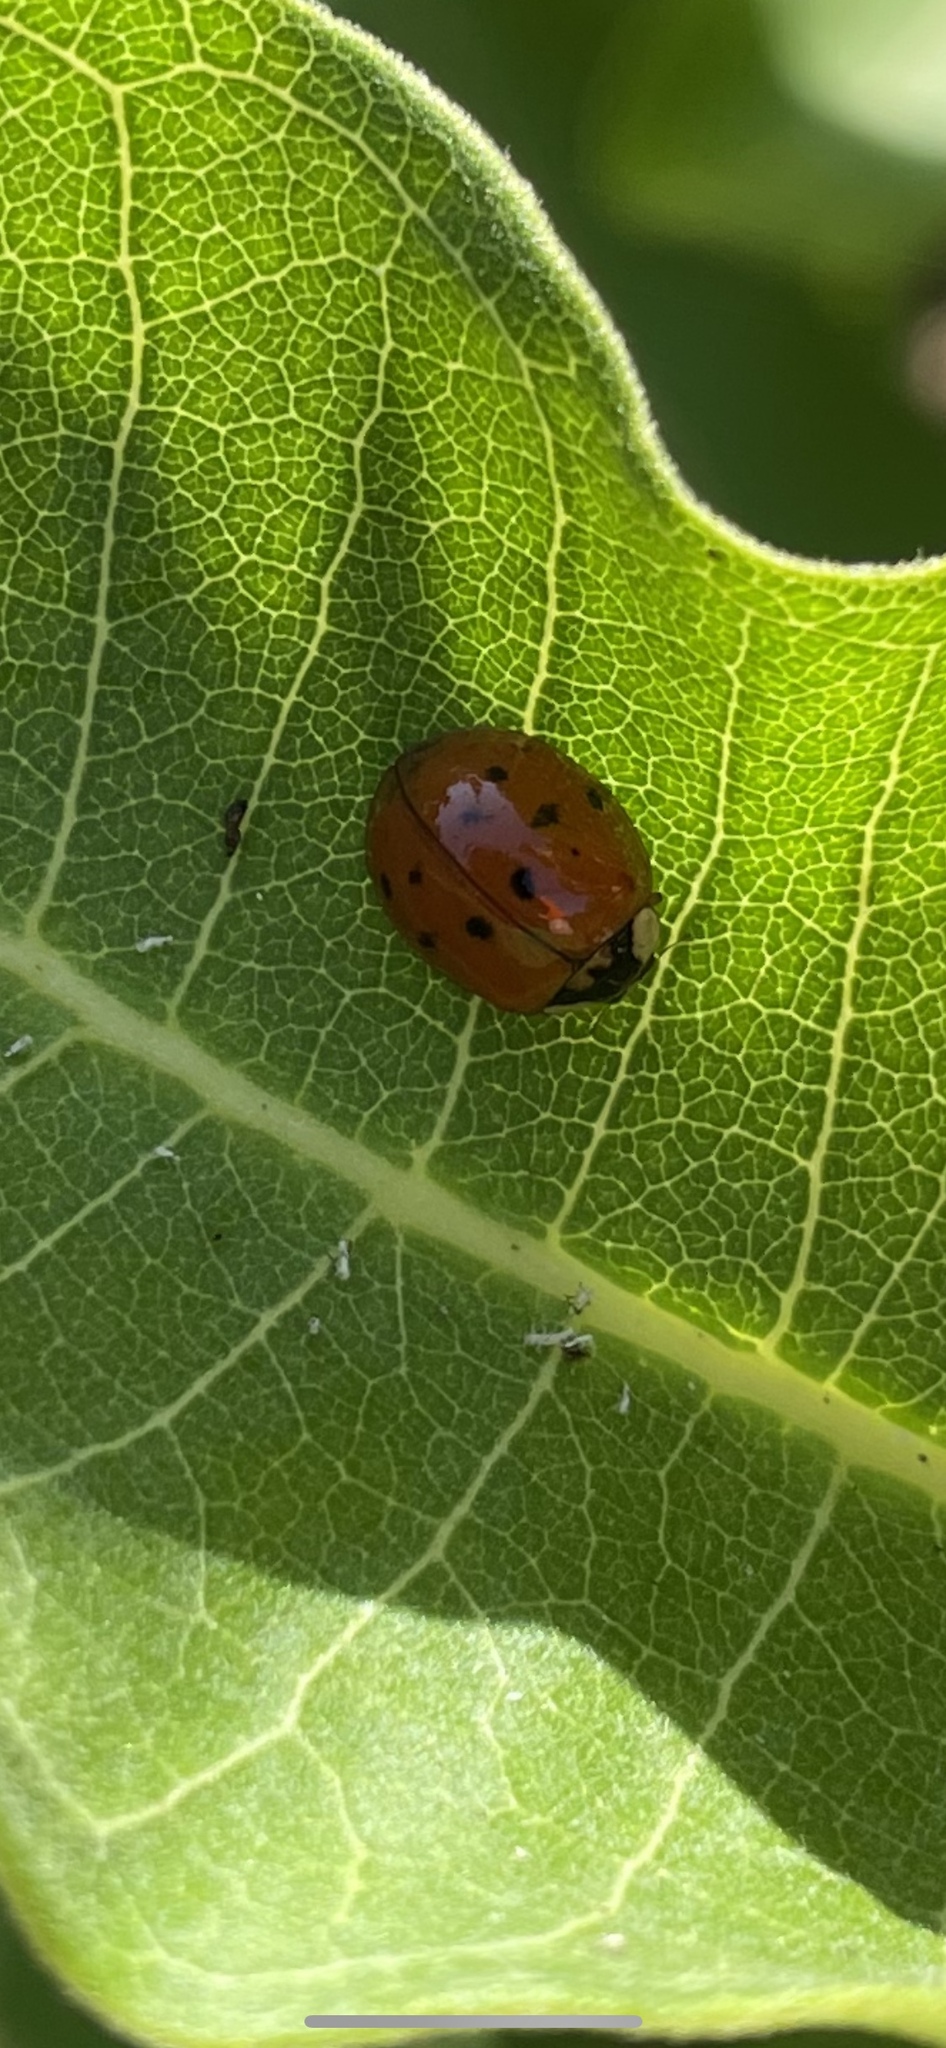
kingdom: Animalia
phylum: Arthropoda
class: Insecta
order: Coleoptera
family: Coccinellidae
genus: Harmonia
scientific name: Harmonia axyridis
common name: Harlequin ladybird
